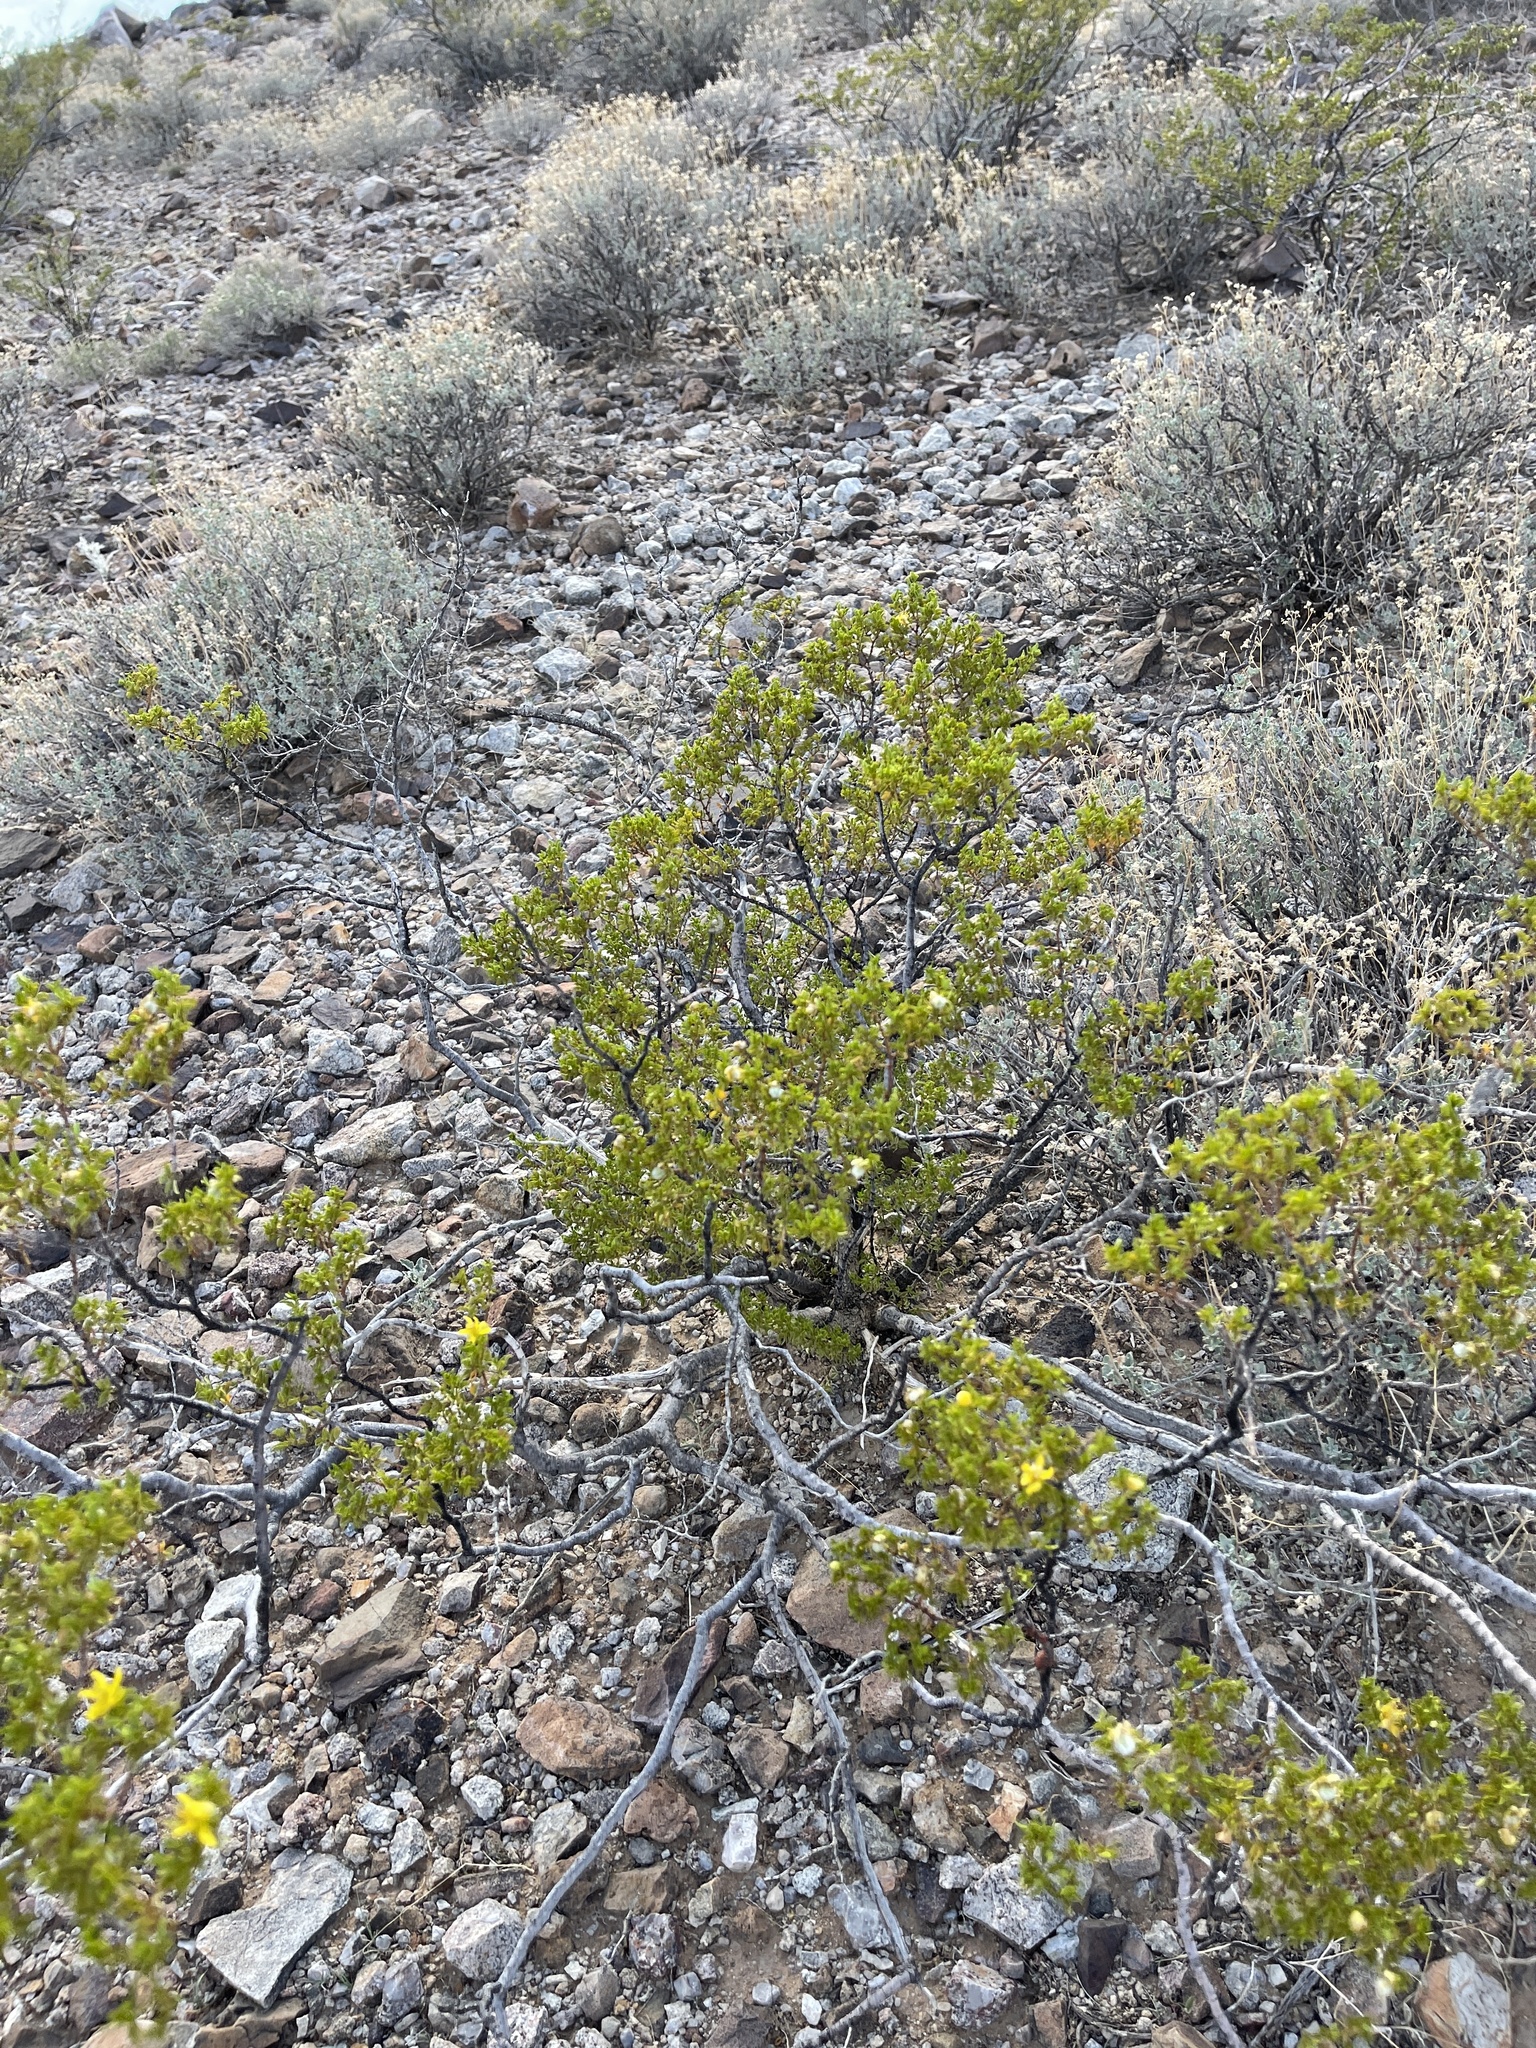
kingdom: Plantae
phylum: Tracheophyta
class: Magnoliopsida
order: Zygophyllales
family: Zygophyllaceae
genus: Larrea
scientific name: Larrea tridentata
